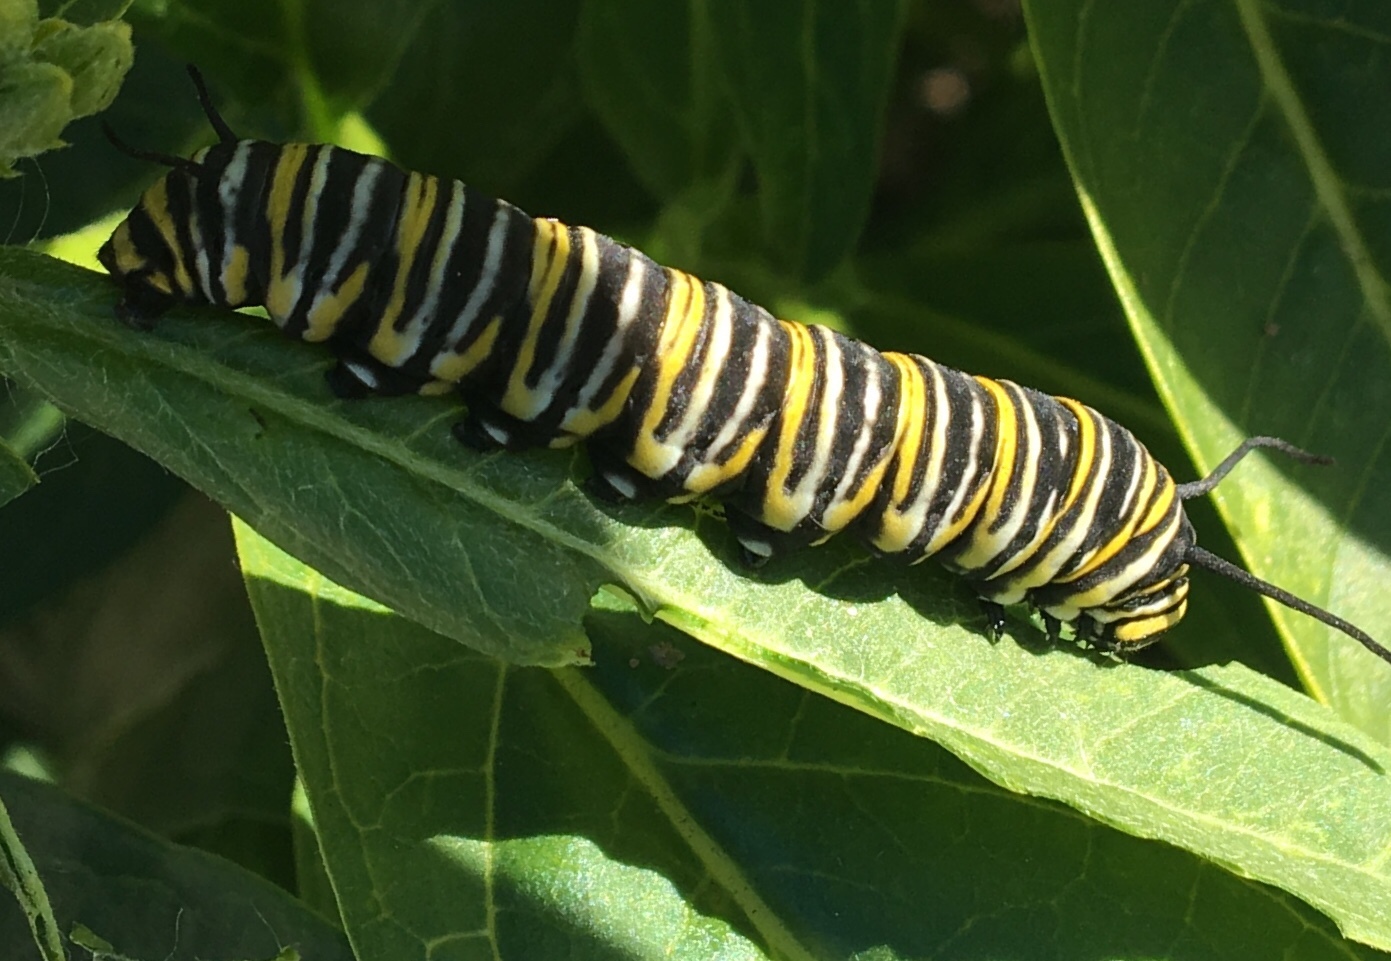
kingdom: Animalia
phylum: Arthropoda
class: Insecta
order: Lepidoptera
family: Nymphalidae
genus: Danaus
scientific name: Danaus plexippus
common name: Monarch
